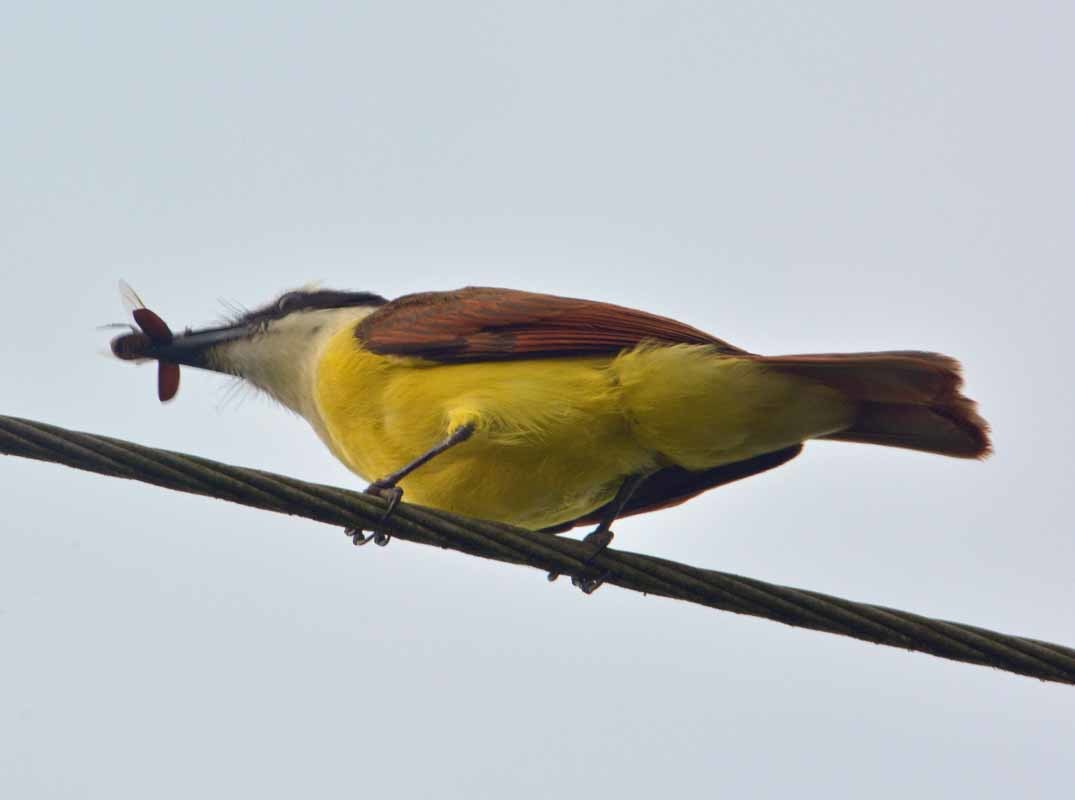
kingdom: Animalia
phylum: Chordata
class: Aves
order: Passeriformes
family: Tyrannidae
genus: Pitangus
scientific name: Pitangus sulphuratus
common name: Great kiskadee
